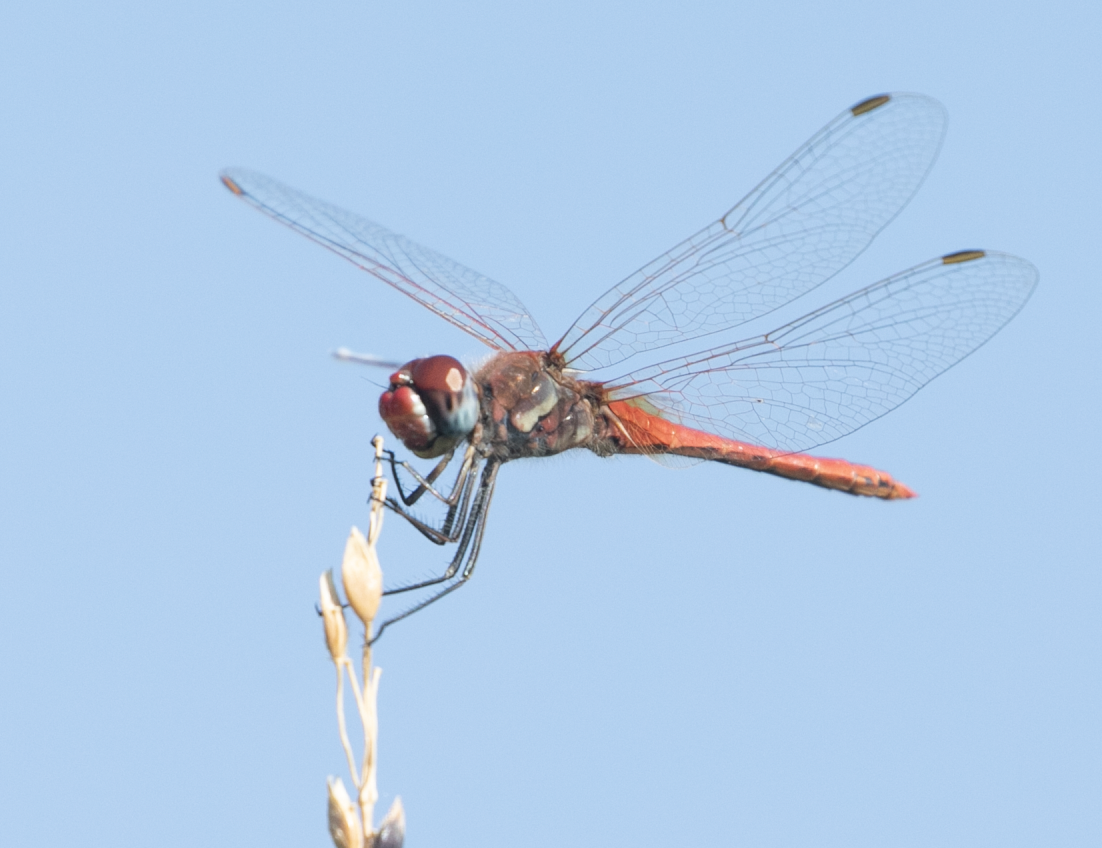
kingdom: Animalia
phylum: Arthropoda
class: Insecta
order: Odonata
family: Libellulidae
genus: Sympetrum
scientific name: Sympetrum fonscolombii
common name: Red-veined darter
